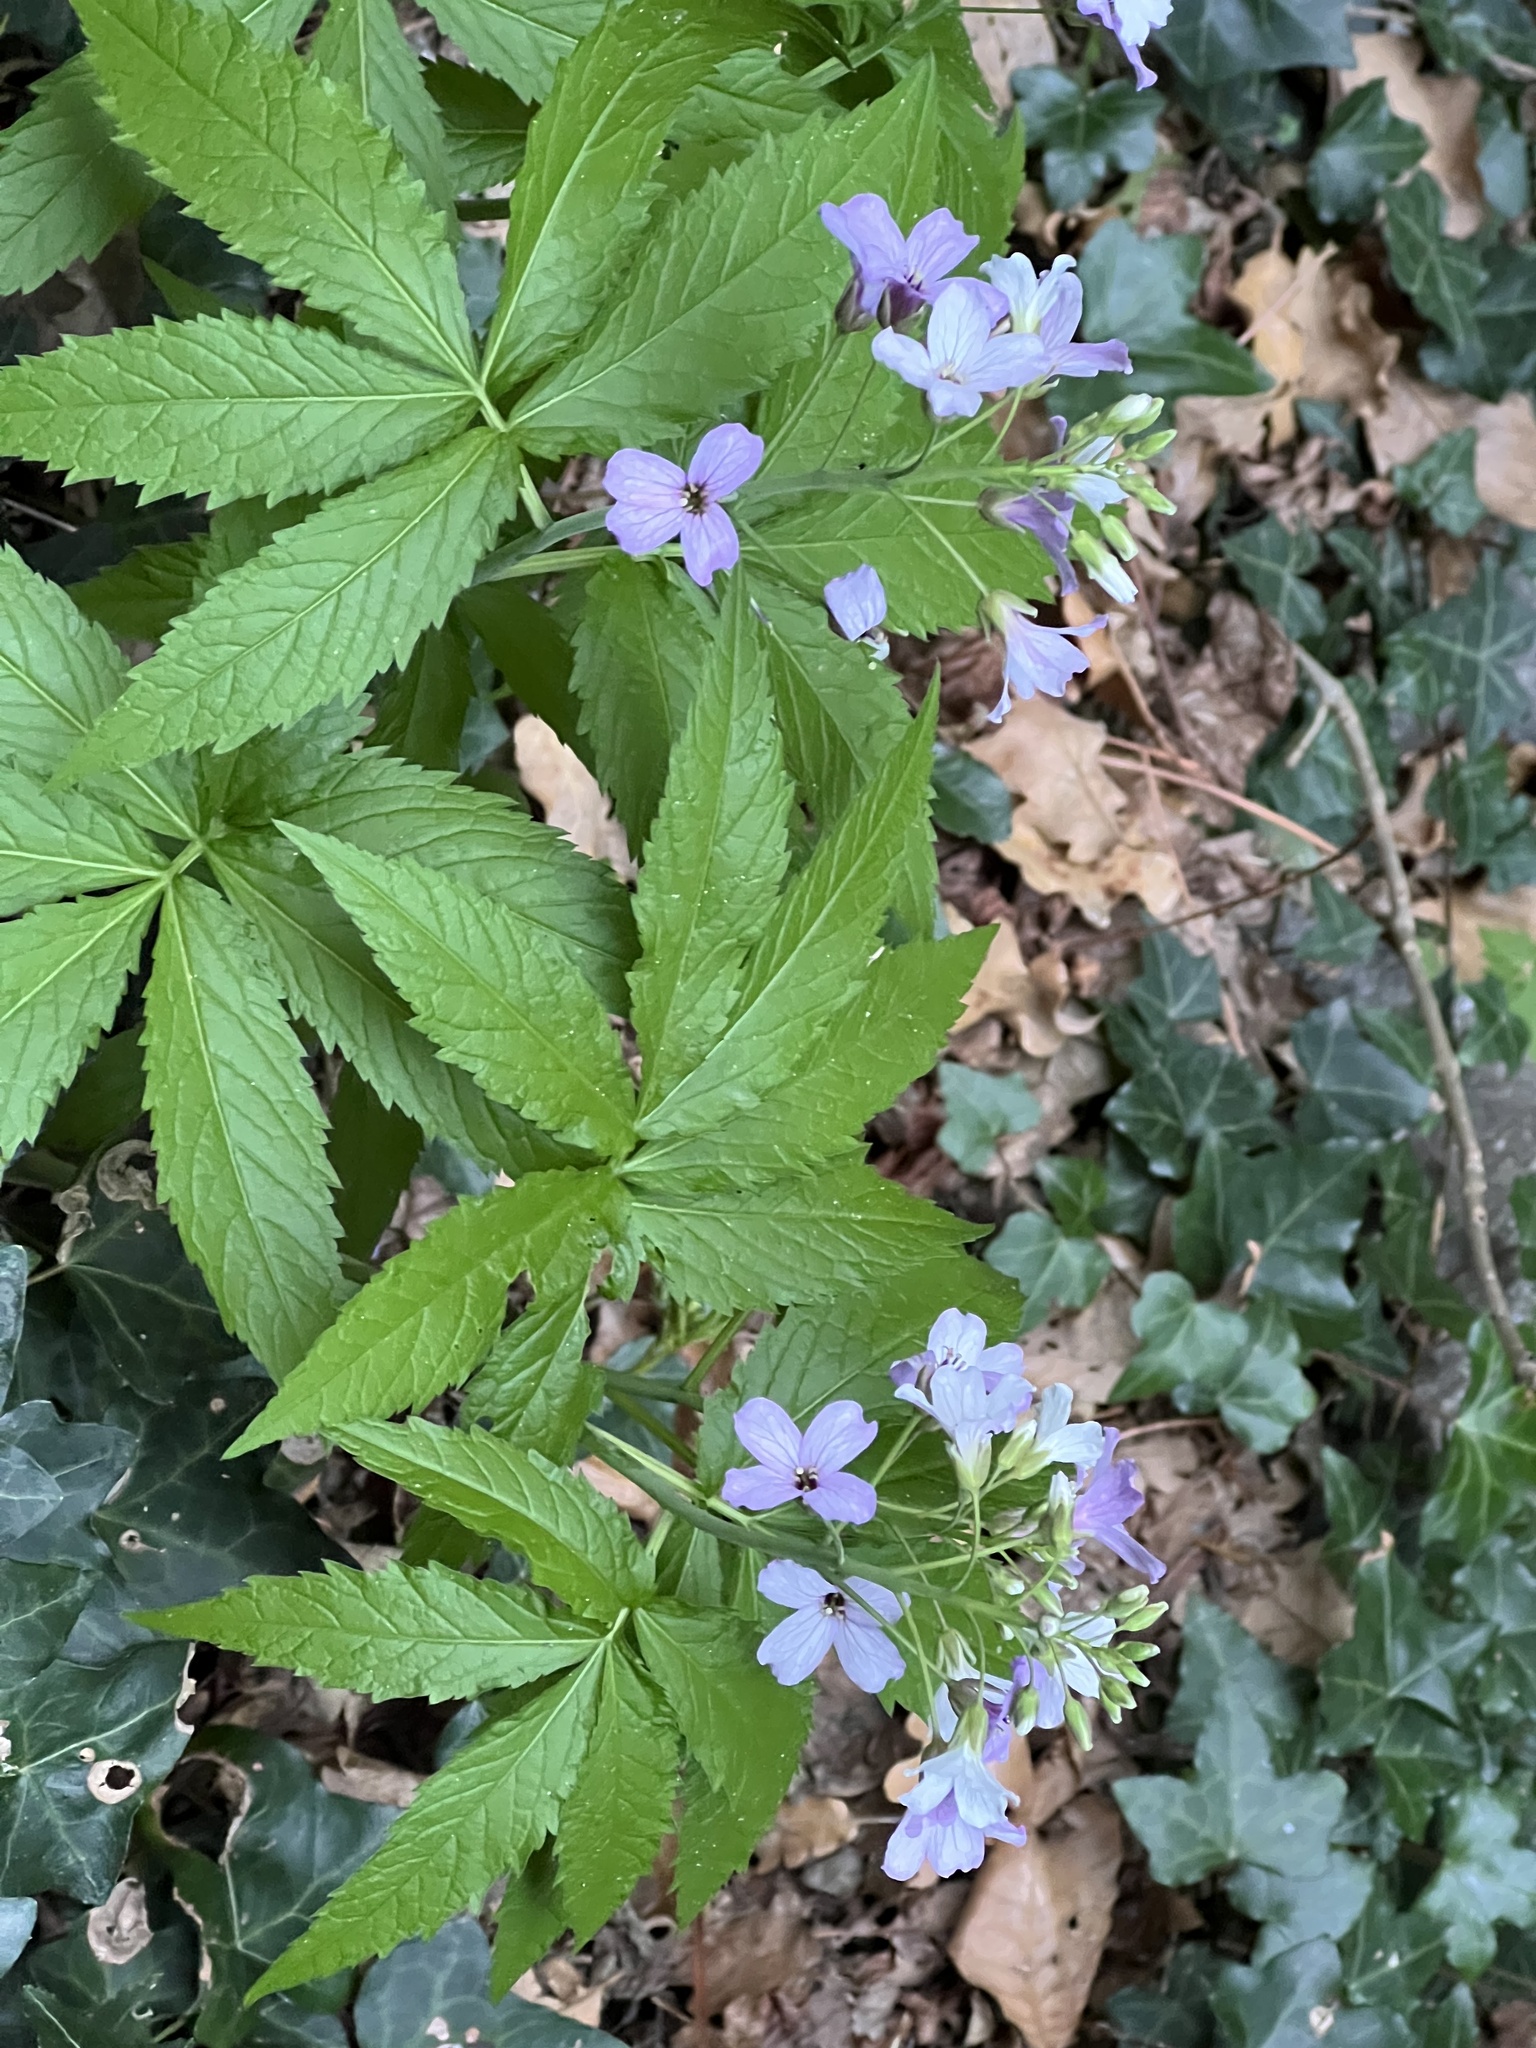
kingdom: Plantae
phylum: Tracheophyta
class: Magnoliopsida
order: Brassicales
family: Brassicaceae
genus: Cardamine
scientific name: Cardamine heptaphylla
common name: Pinnate coralroot
